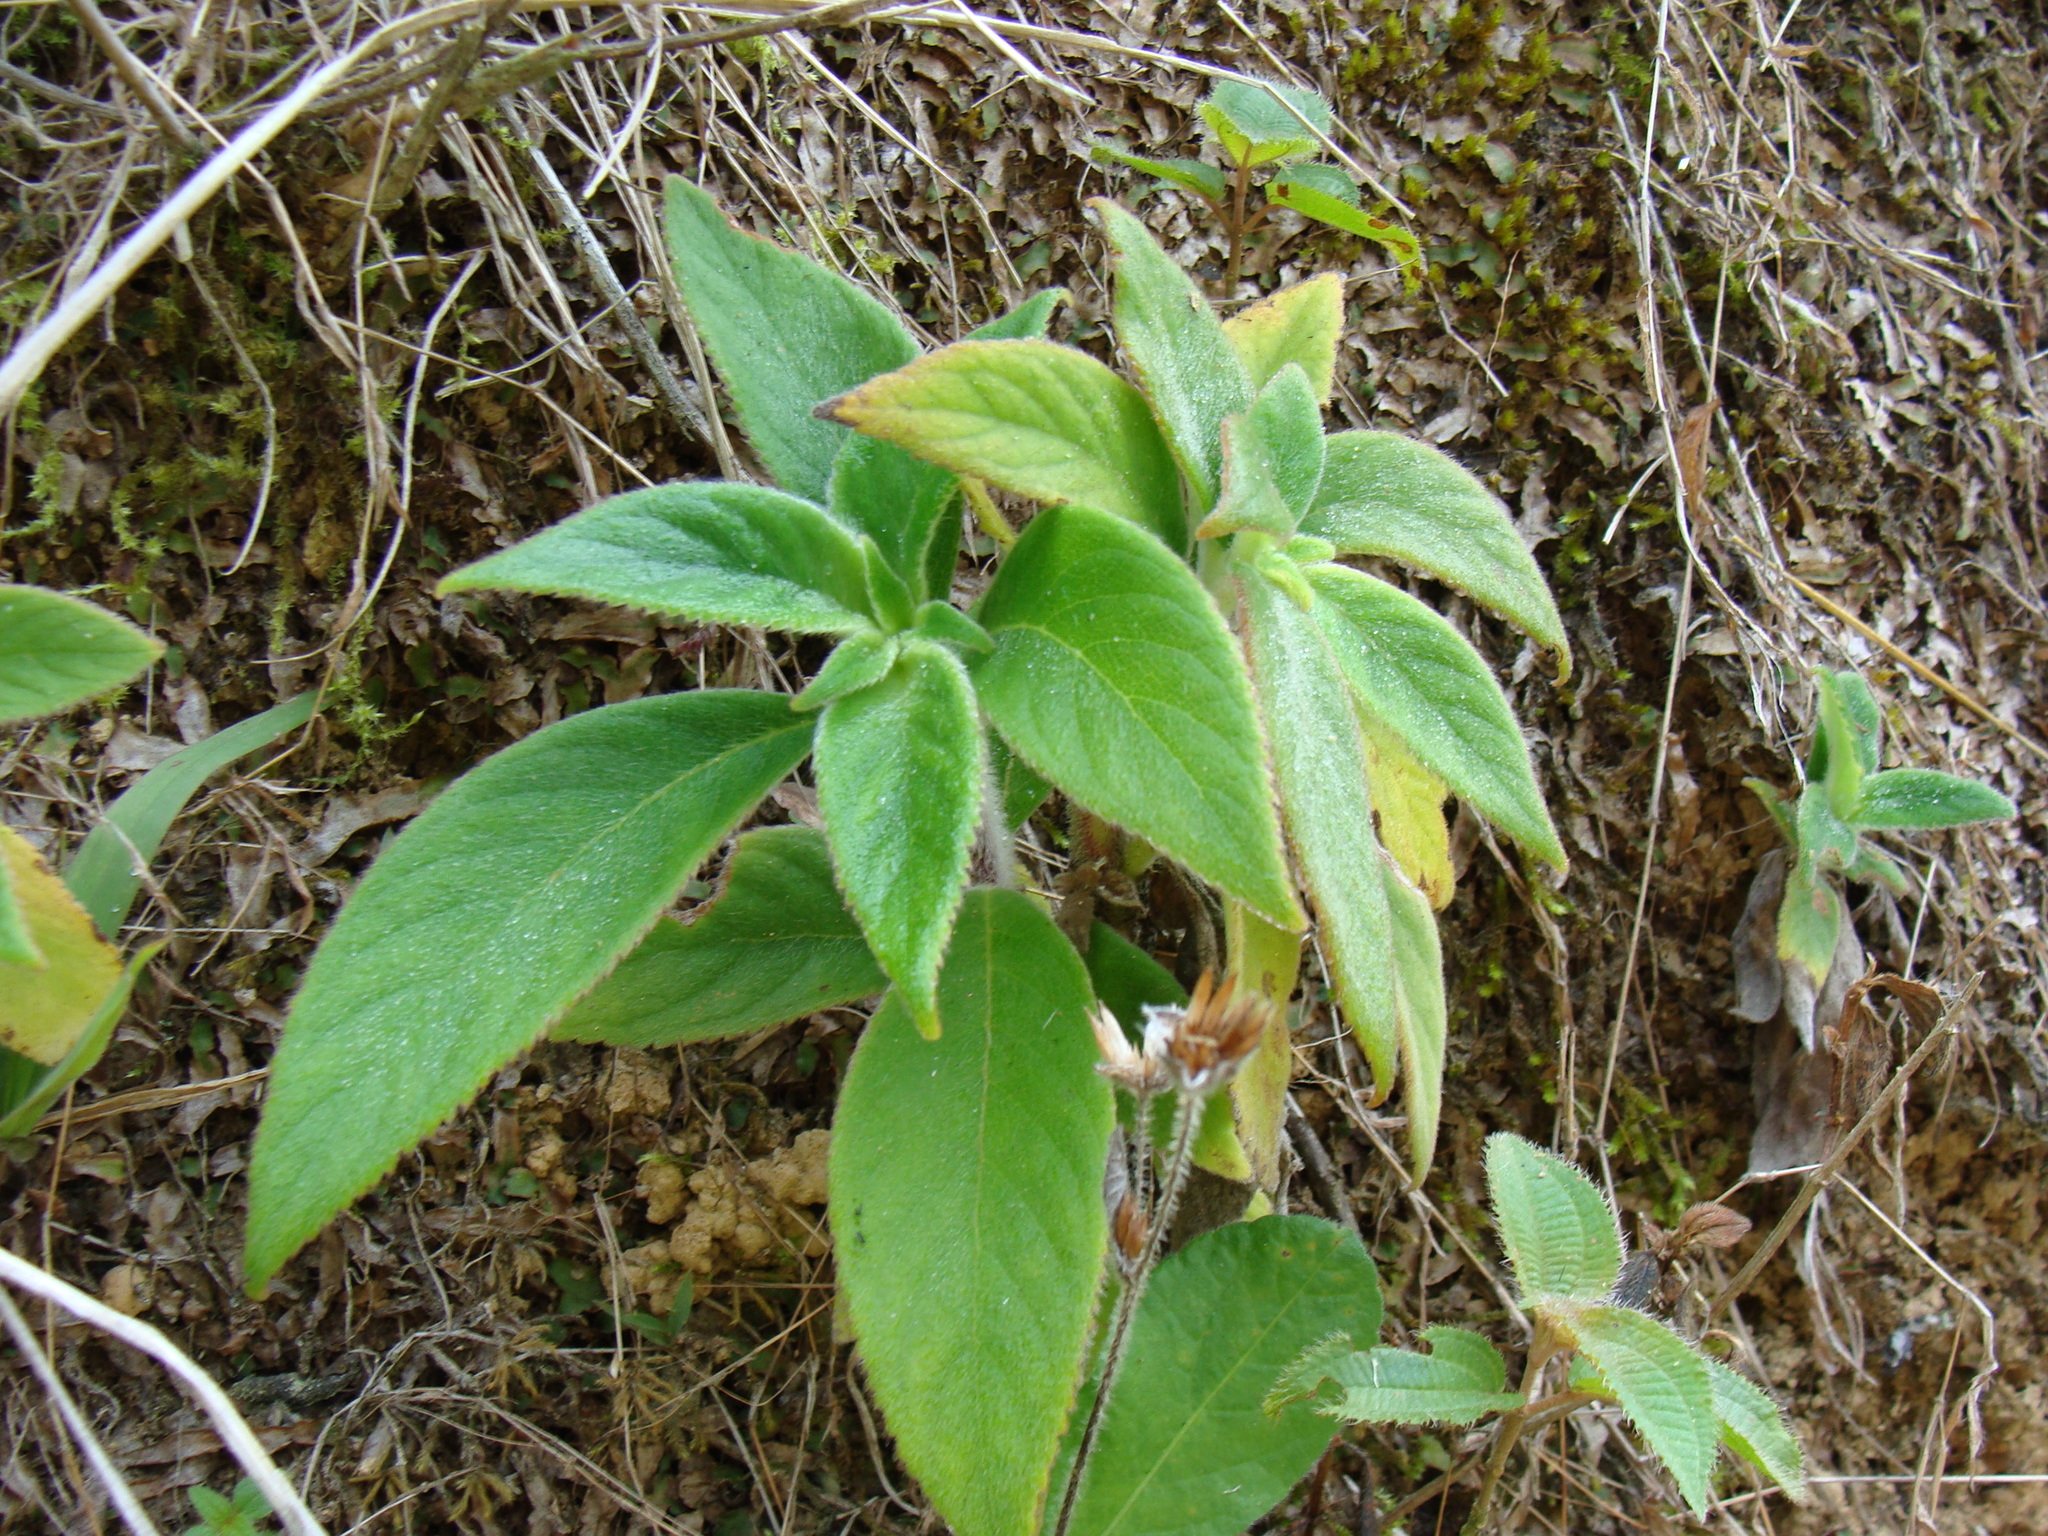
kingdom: Plantae
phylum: Tracheophyta
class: Magnoliopsida
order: Lamiales
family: Gesneriaceae
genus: Kohleria
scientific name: Kohleria spicata
